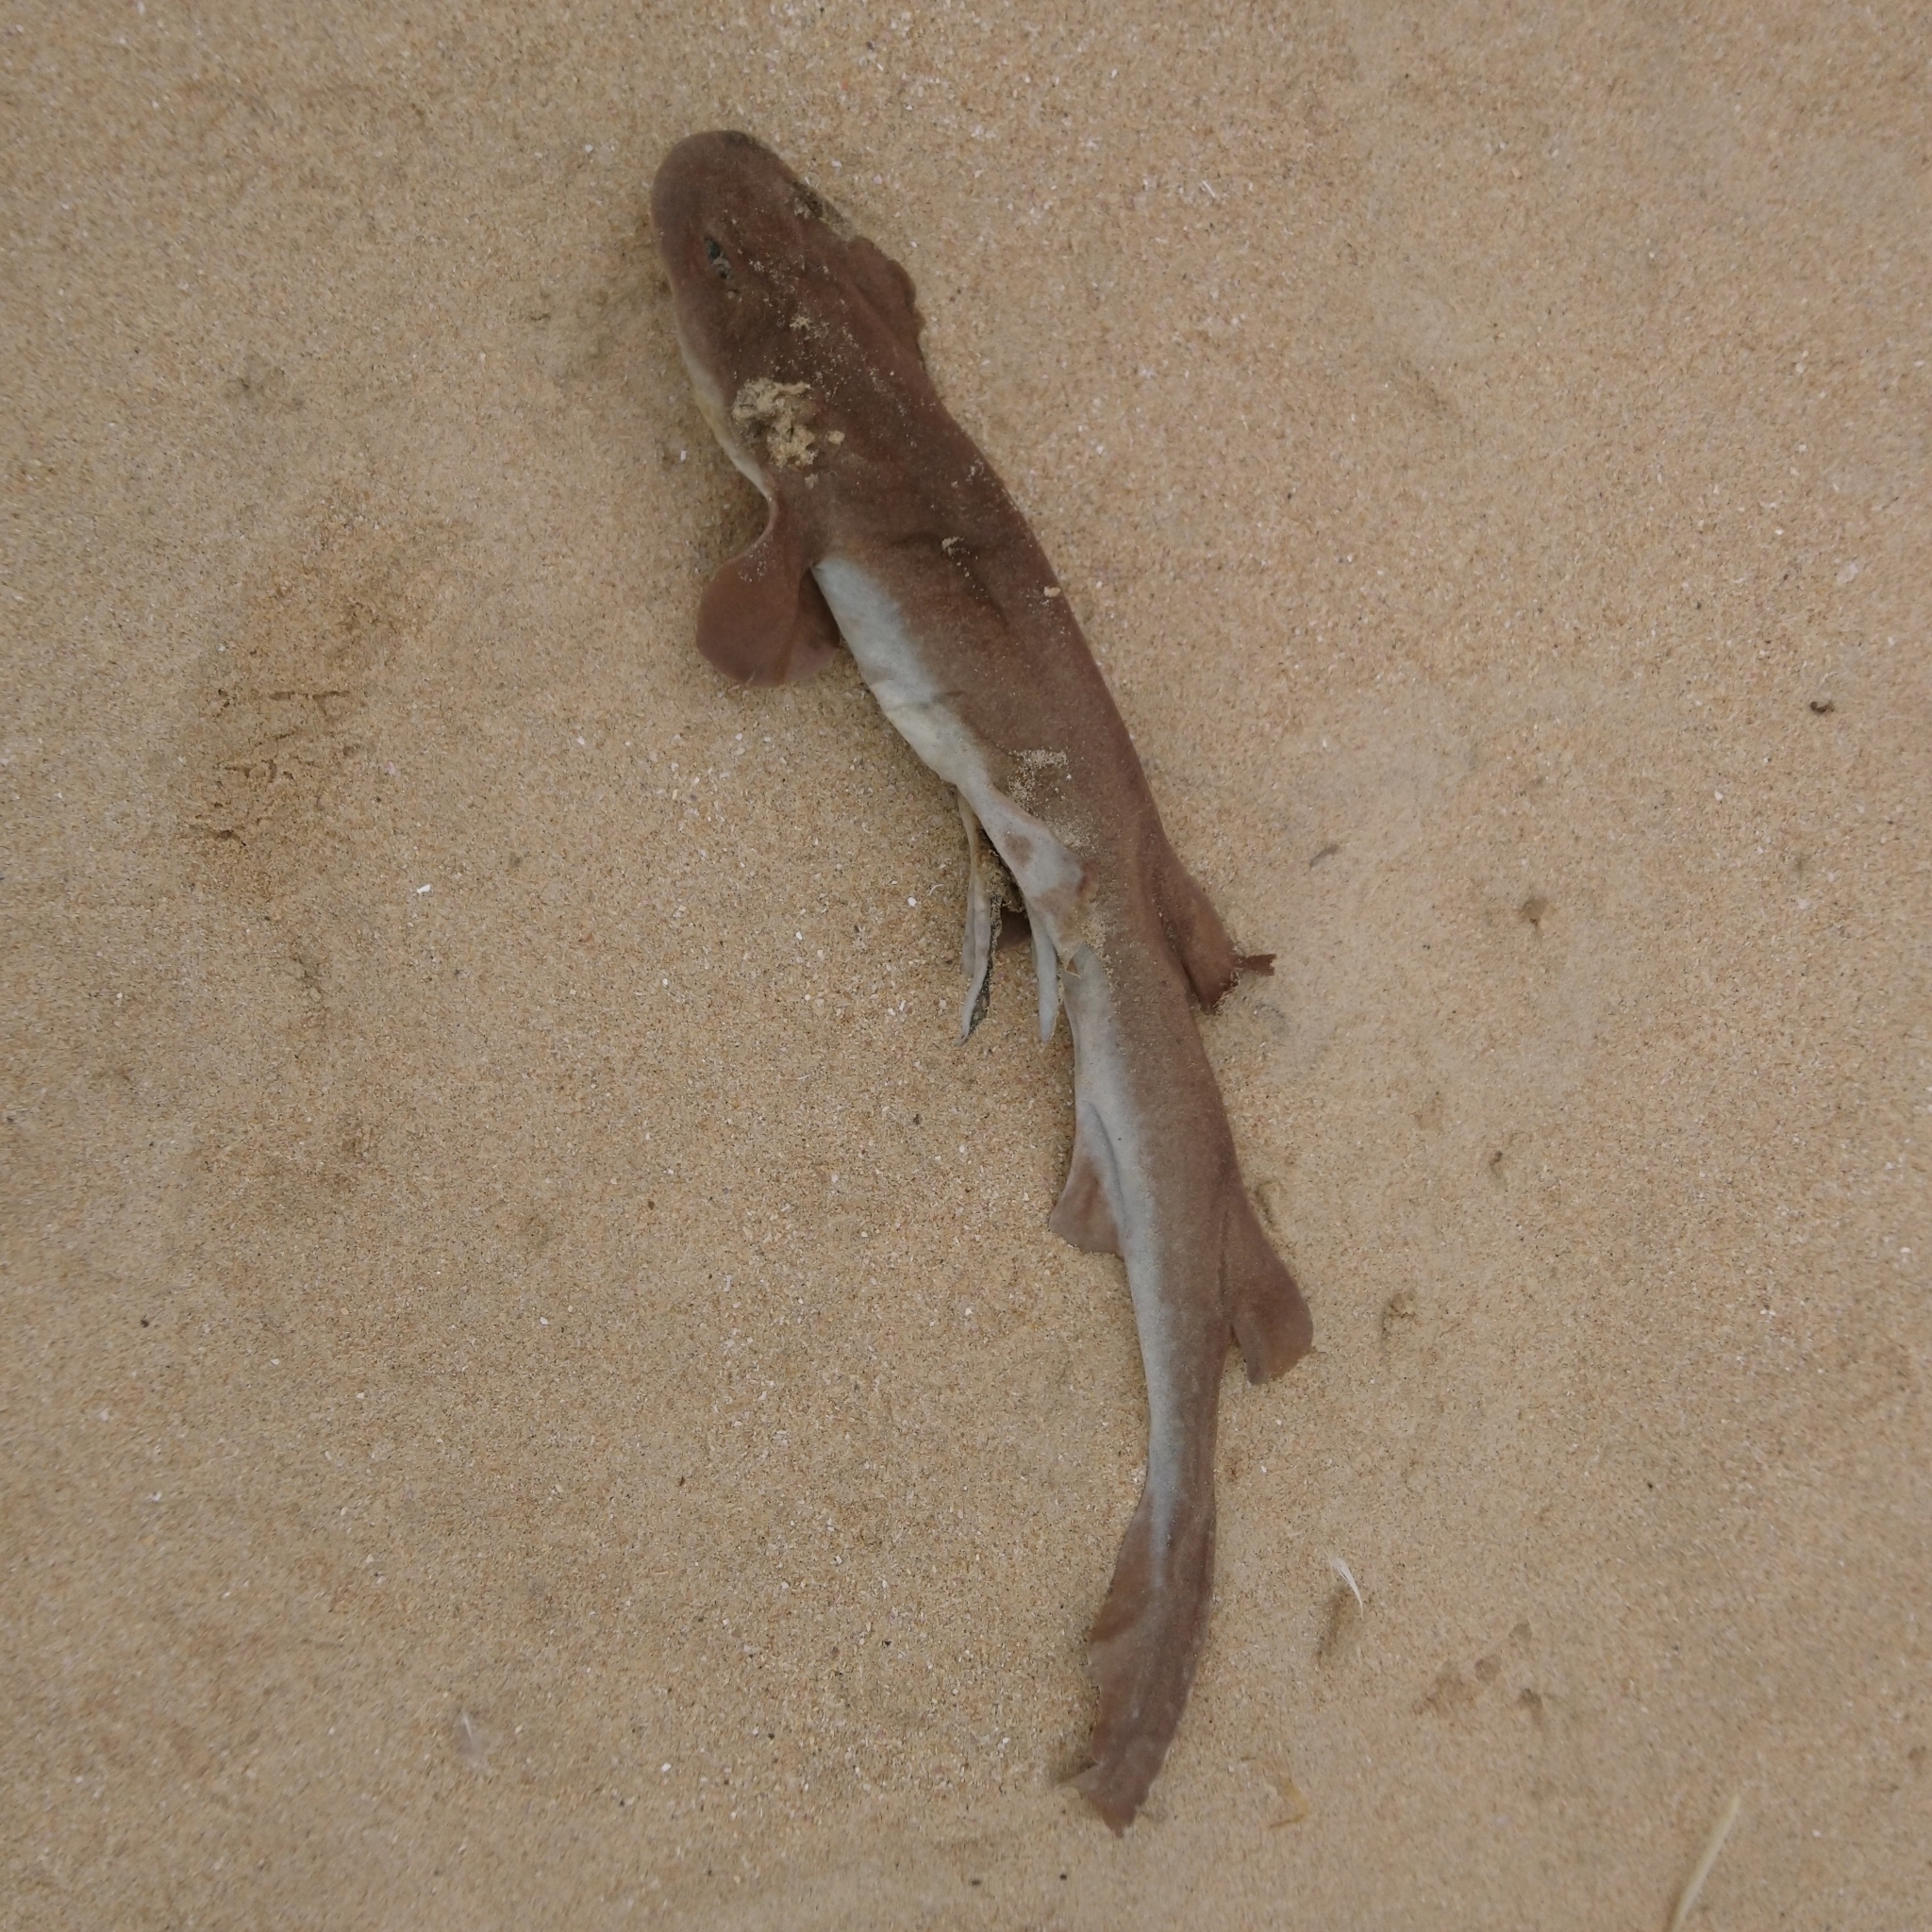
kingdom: Animalia
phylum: Chordata
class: Elasmobranchii
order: Carcharhiniformes
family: Scyliorhinidae
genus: Haploblepharus
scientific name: Haploblepharus fuscus
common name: Brown shyshark
